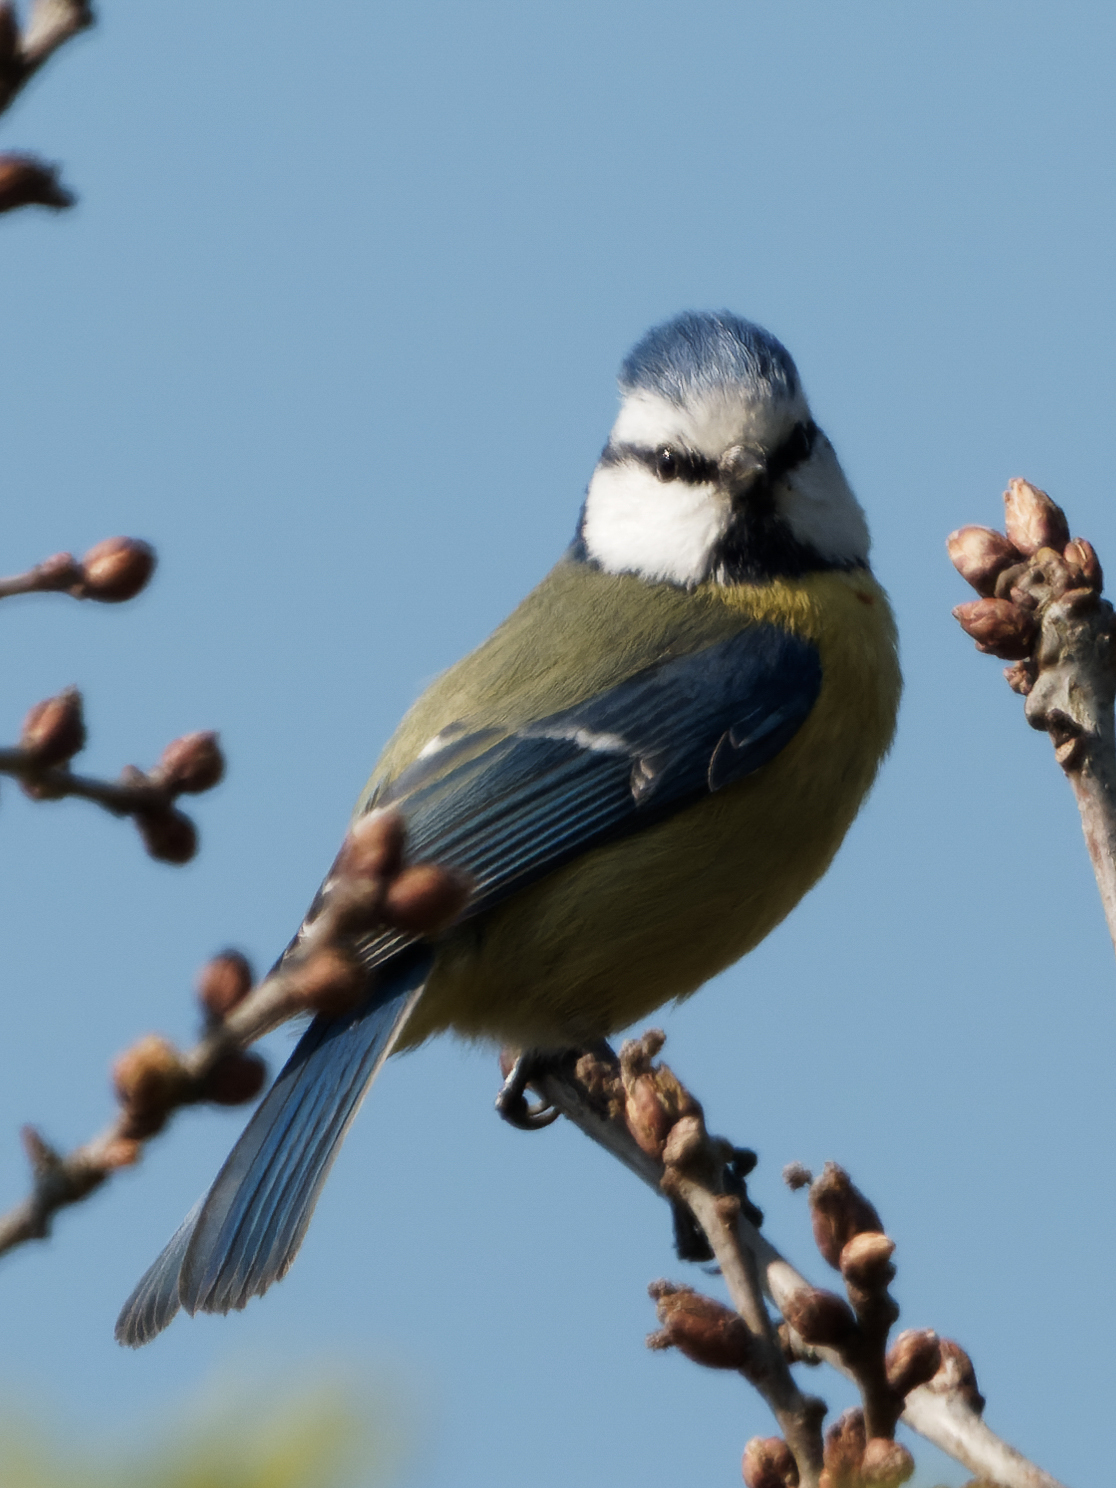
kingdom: Animalia
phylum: Chordata
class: Aves
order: Passeriformes
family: Paridae
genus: Cyanistes
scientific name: Cyanistes caeruleus
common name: Eurasian blue tit
